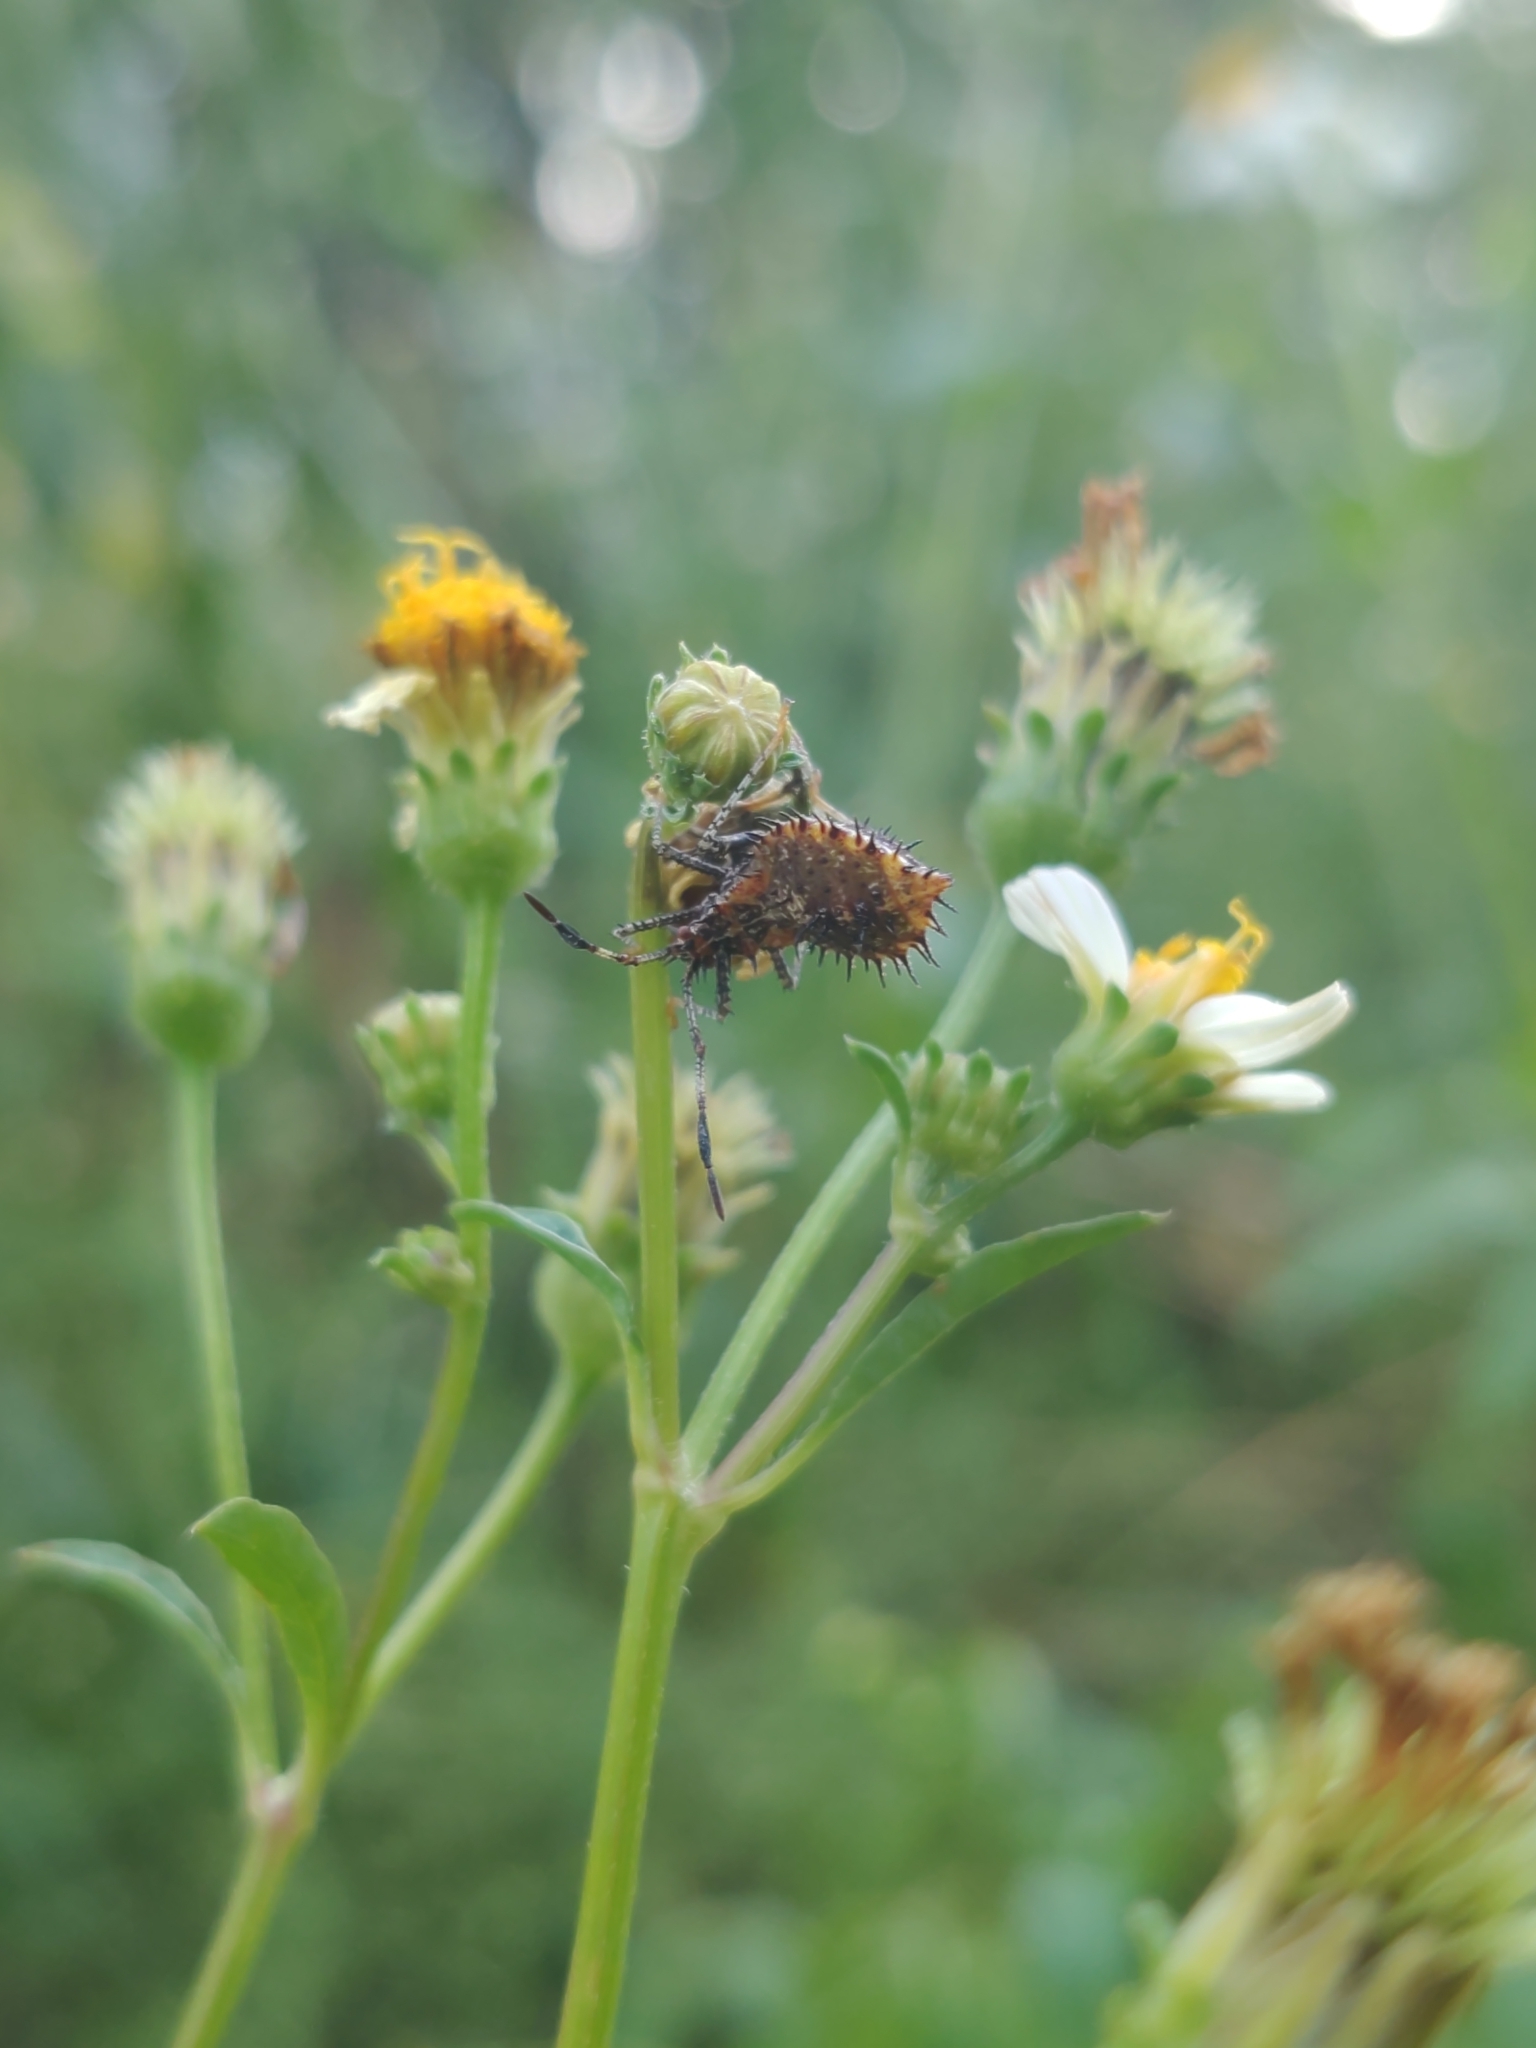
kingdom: Animalia
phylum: Arthropoda
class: Insecta
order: Hemiptera
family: Coreidae
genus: Euthochtha
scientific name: Euthochtha galeator
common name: Helmeted squash bug
